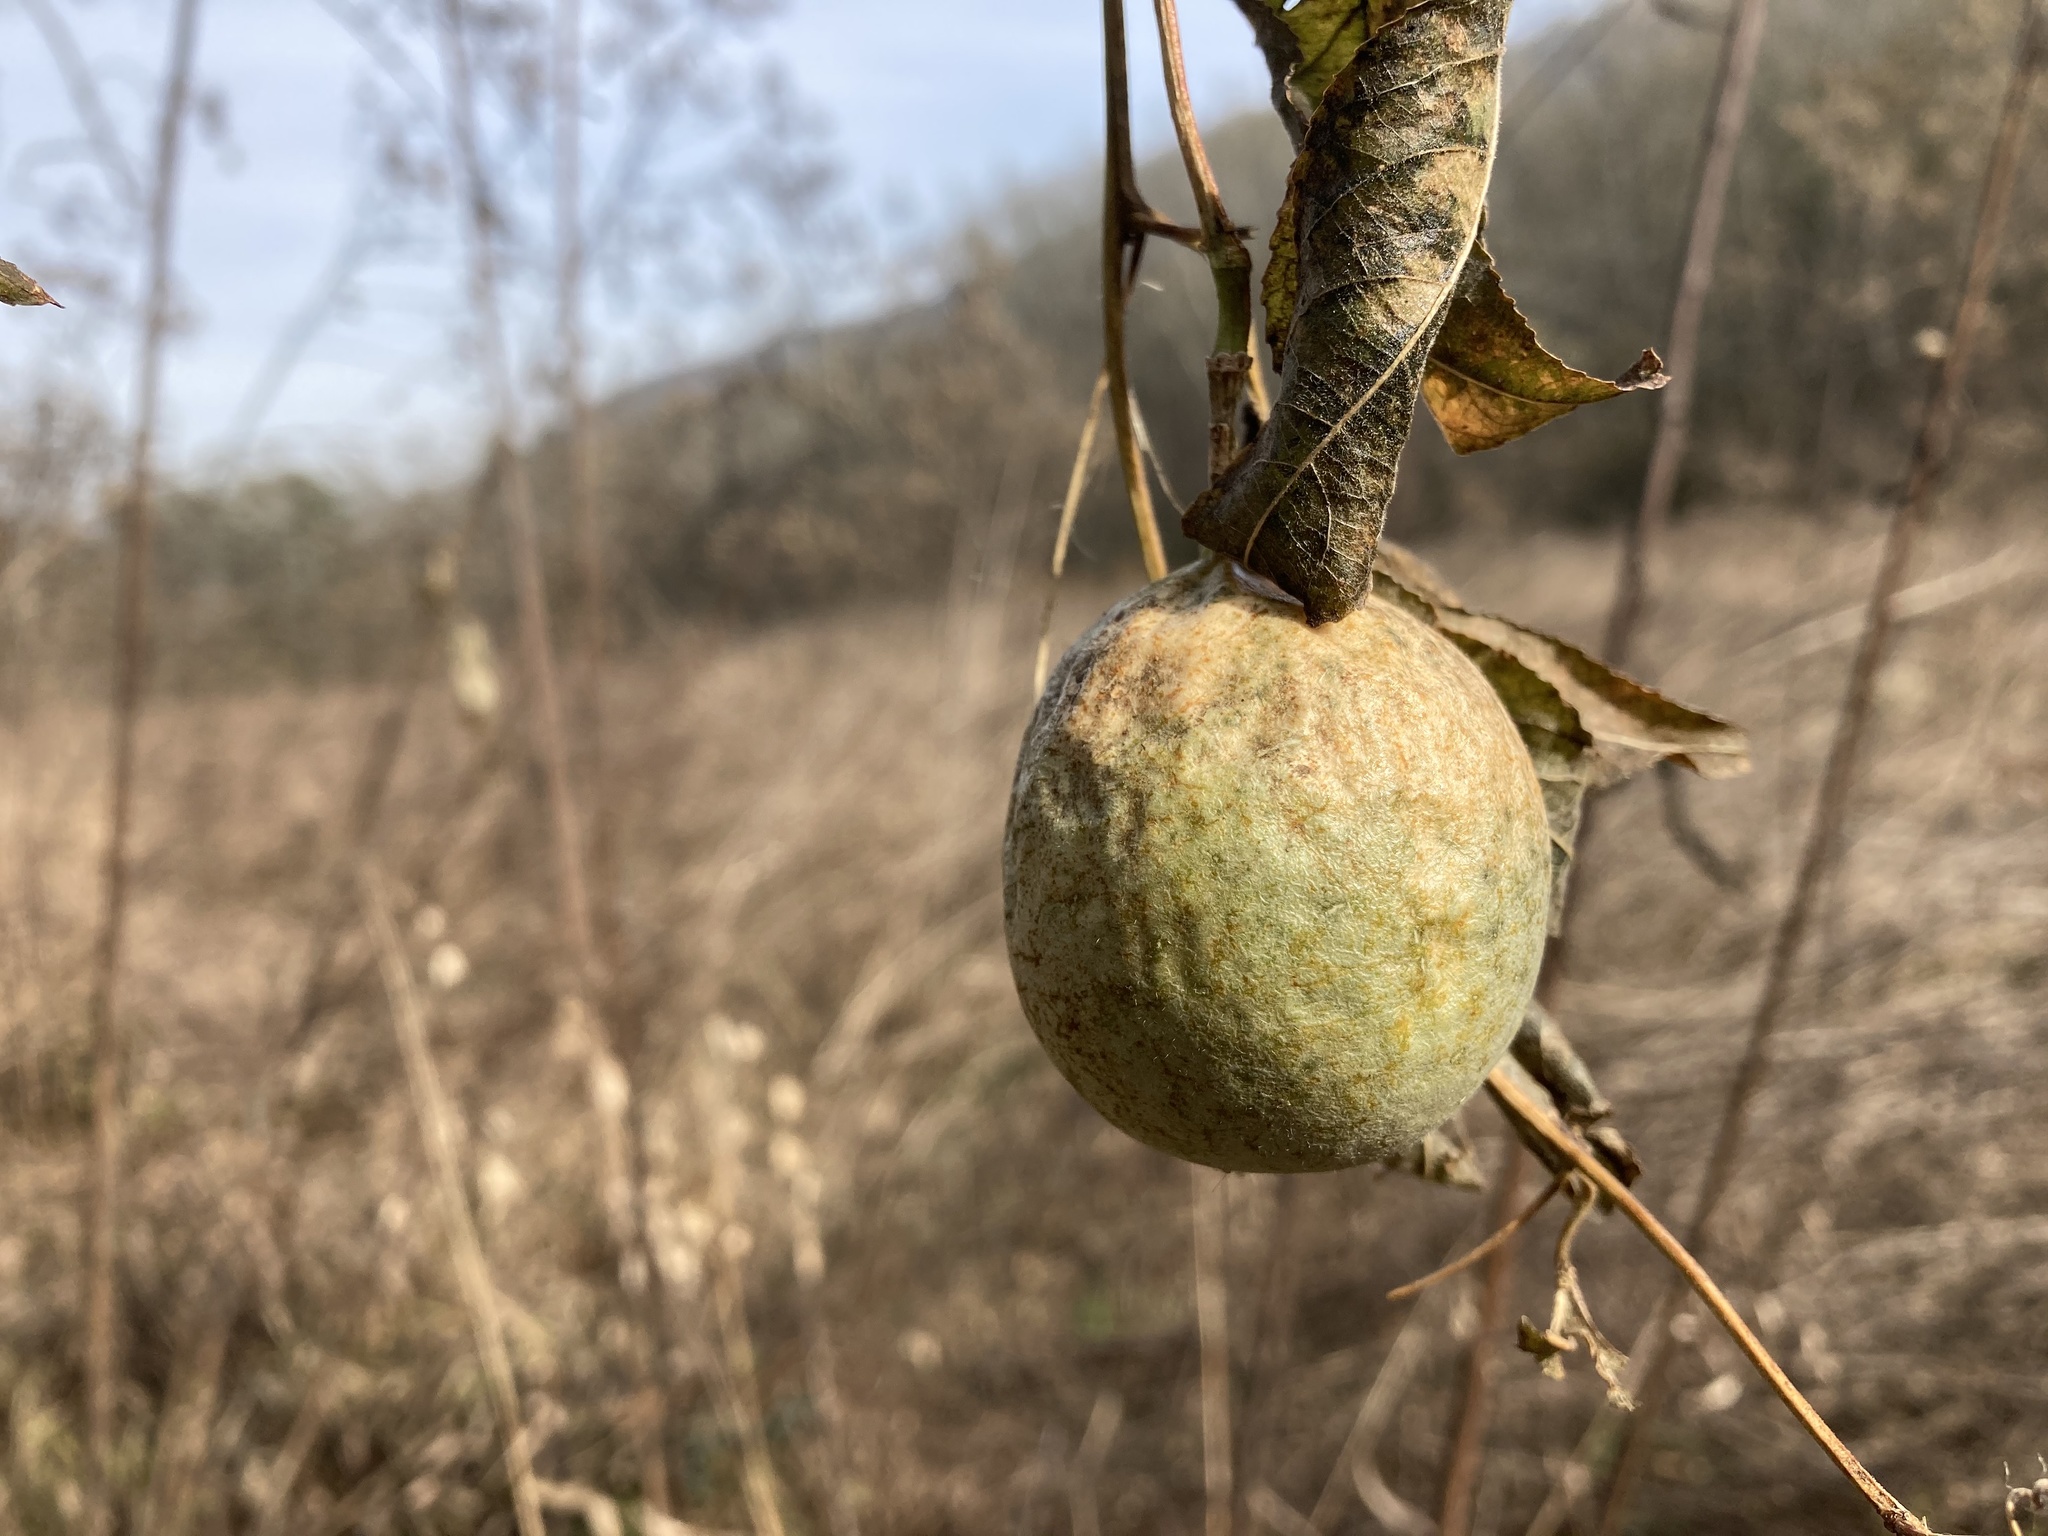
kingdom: Plantae
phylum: Tracheophyta
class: Magnoliopsida
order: Malpighiales
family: Passifloraceae
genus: Passiflora
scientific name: Passiflora incarnata
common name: Apricot-vine
